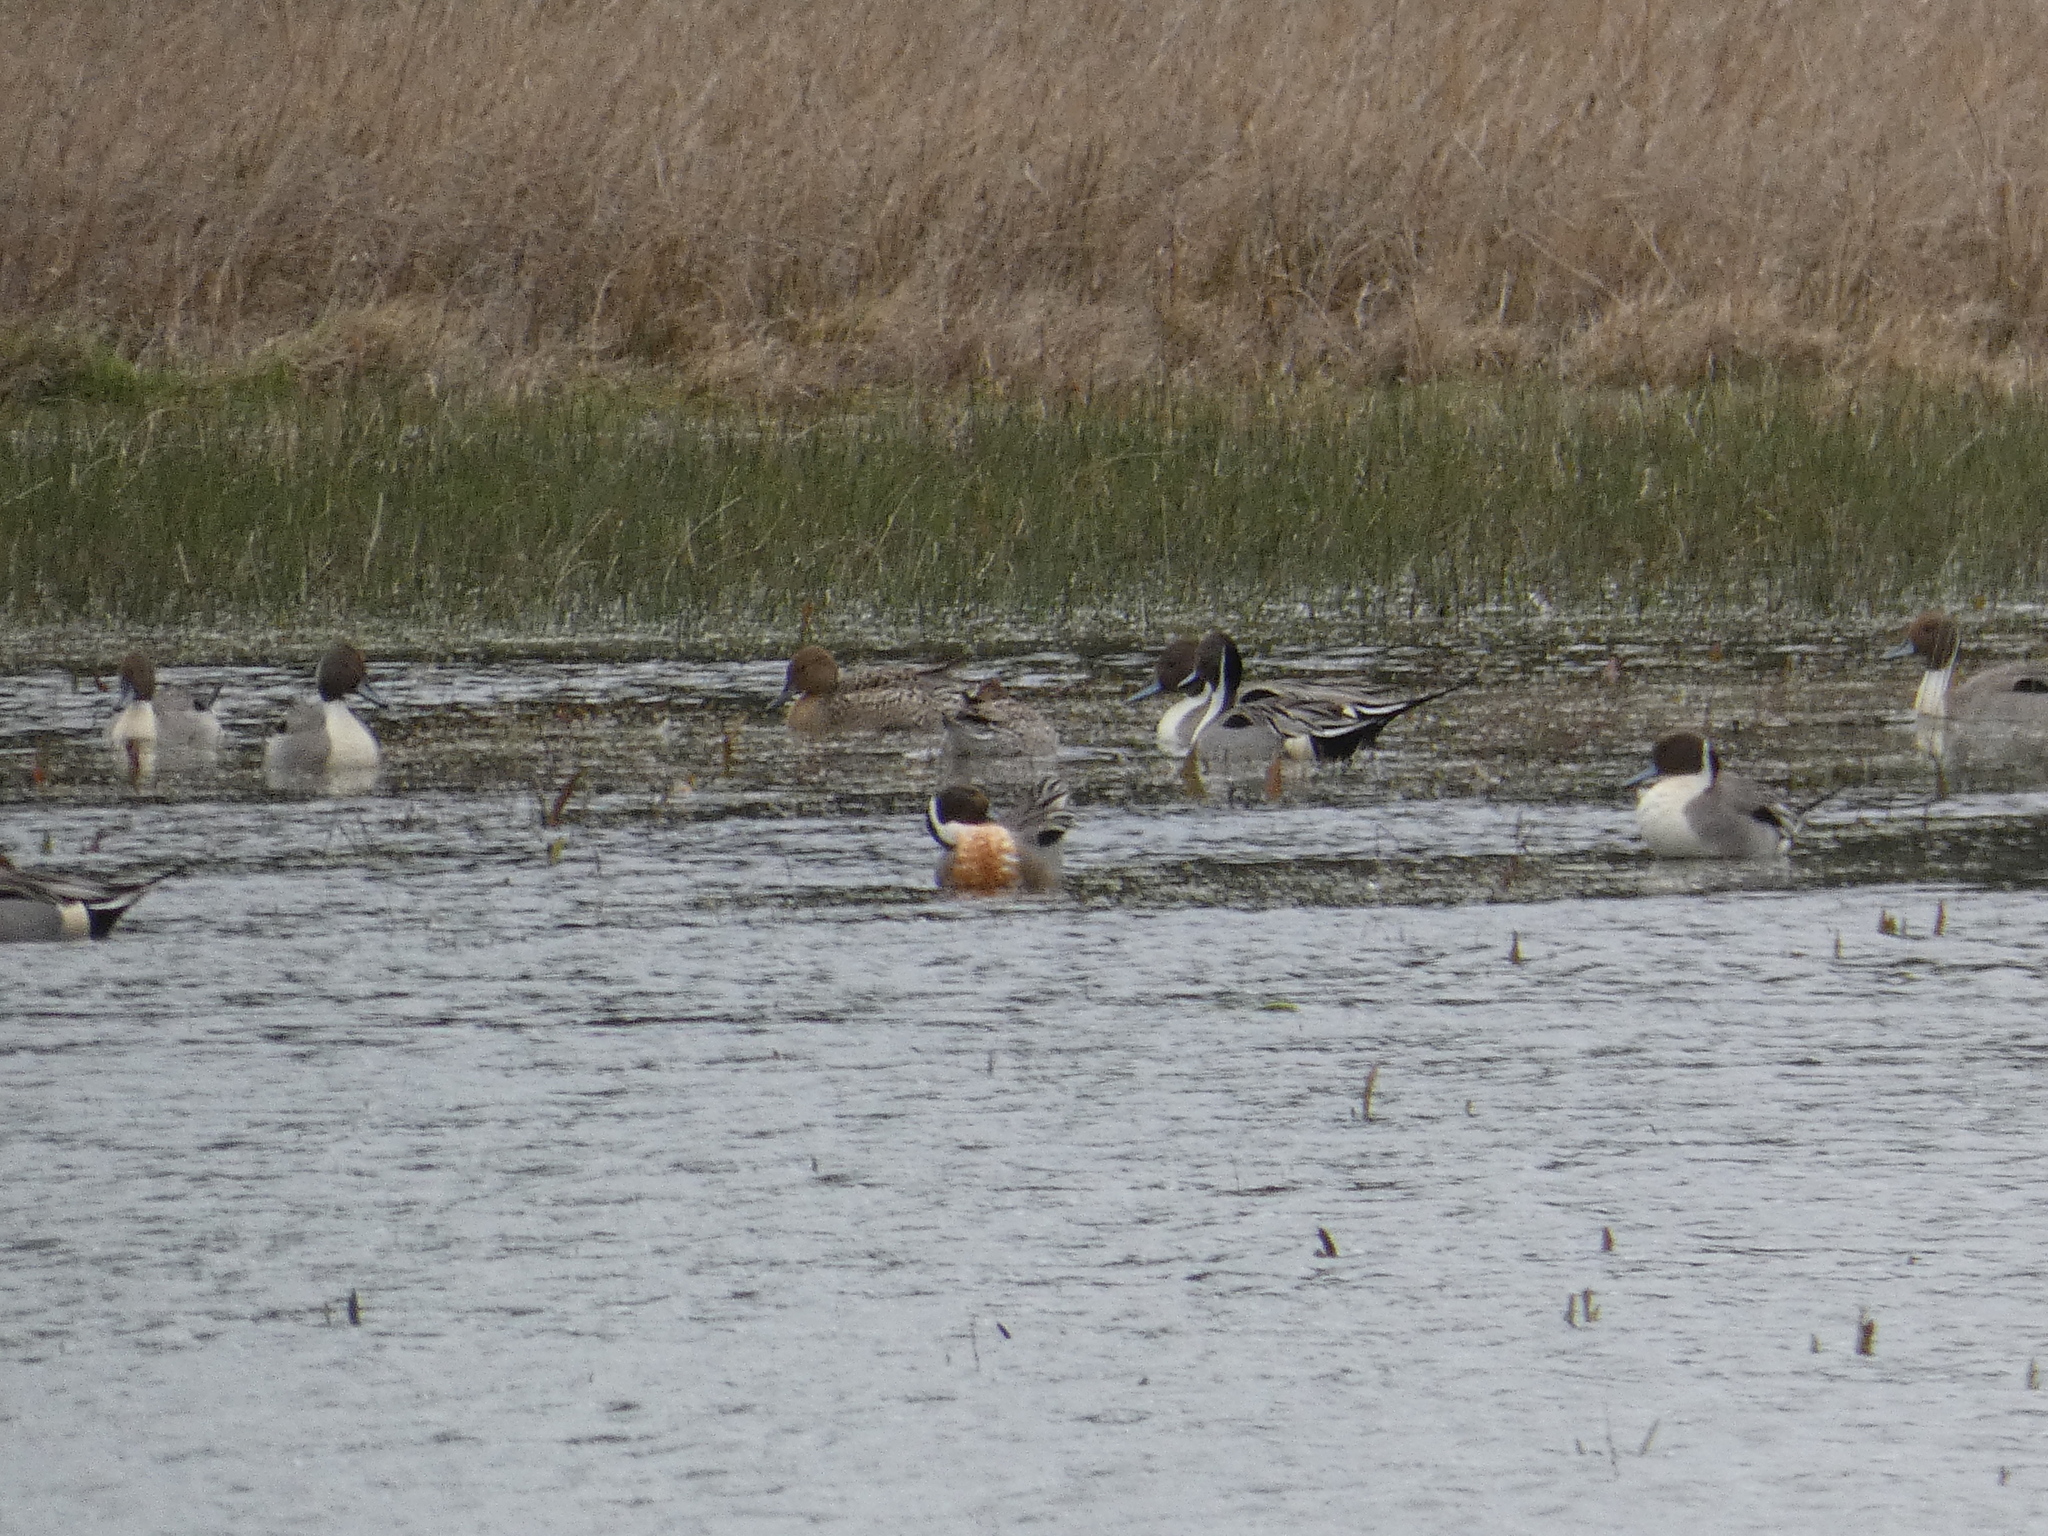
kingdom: Animalia
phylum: Chordata
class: Aves
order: Anseriformes
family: Anatidae
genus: Anas
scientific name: Anas acuta
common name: Northern pintail
